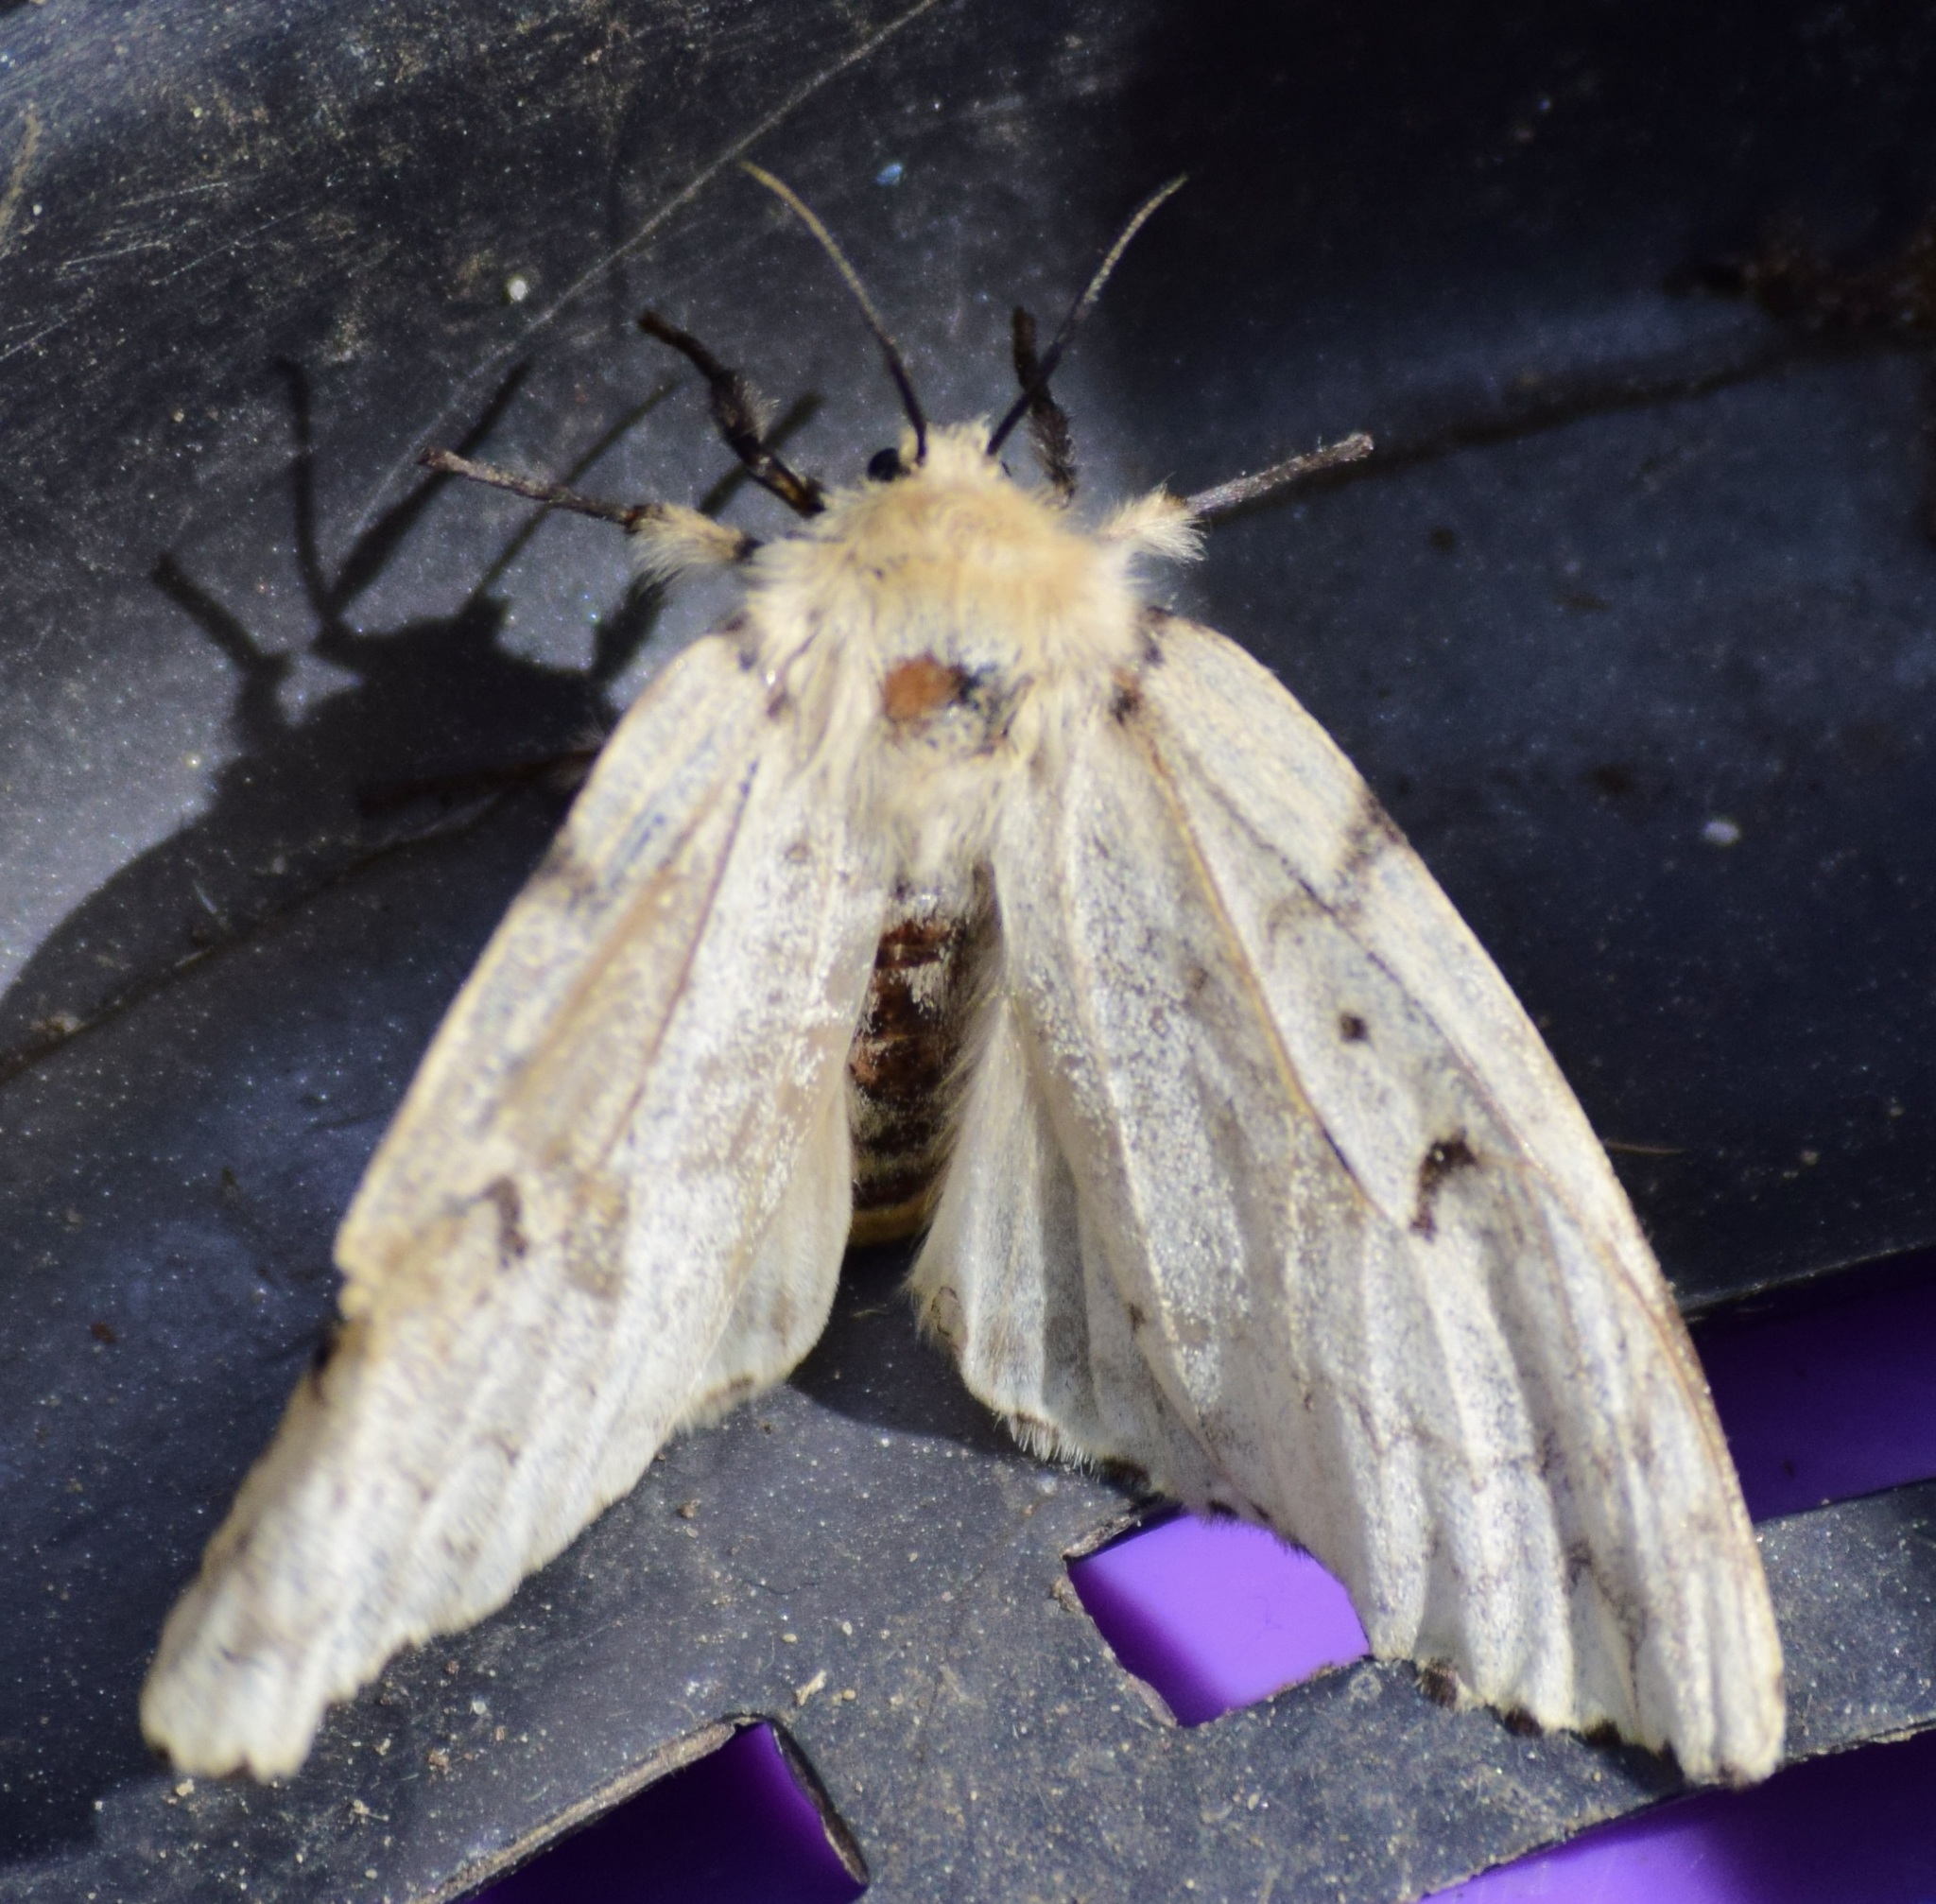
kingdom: Animalia
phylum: Arthropoda
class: Insecta
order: Lepidoptera
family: Erebidae
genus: Lymantria
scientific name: Lymantria dispar
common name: Gypsy moth
